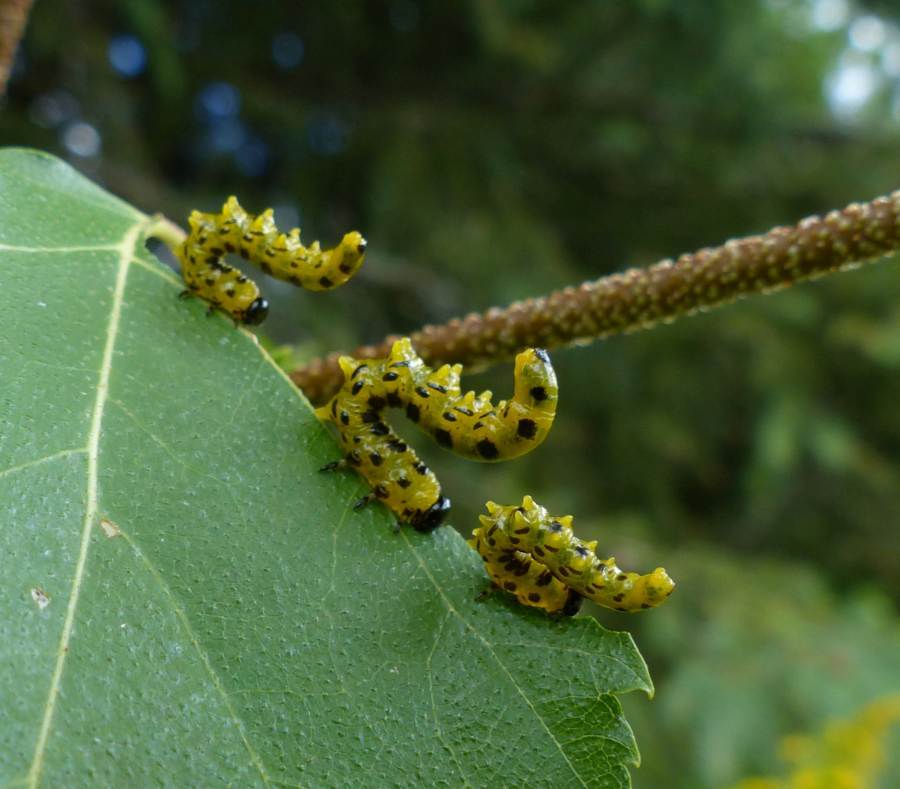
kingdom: Animalia
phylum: Arthropoda
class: Insecta
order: Hymenoptera
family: Tenthredinidae
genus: Nematus
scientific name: Nematus
